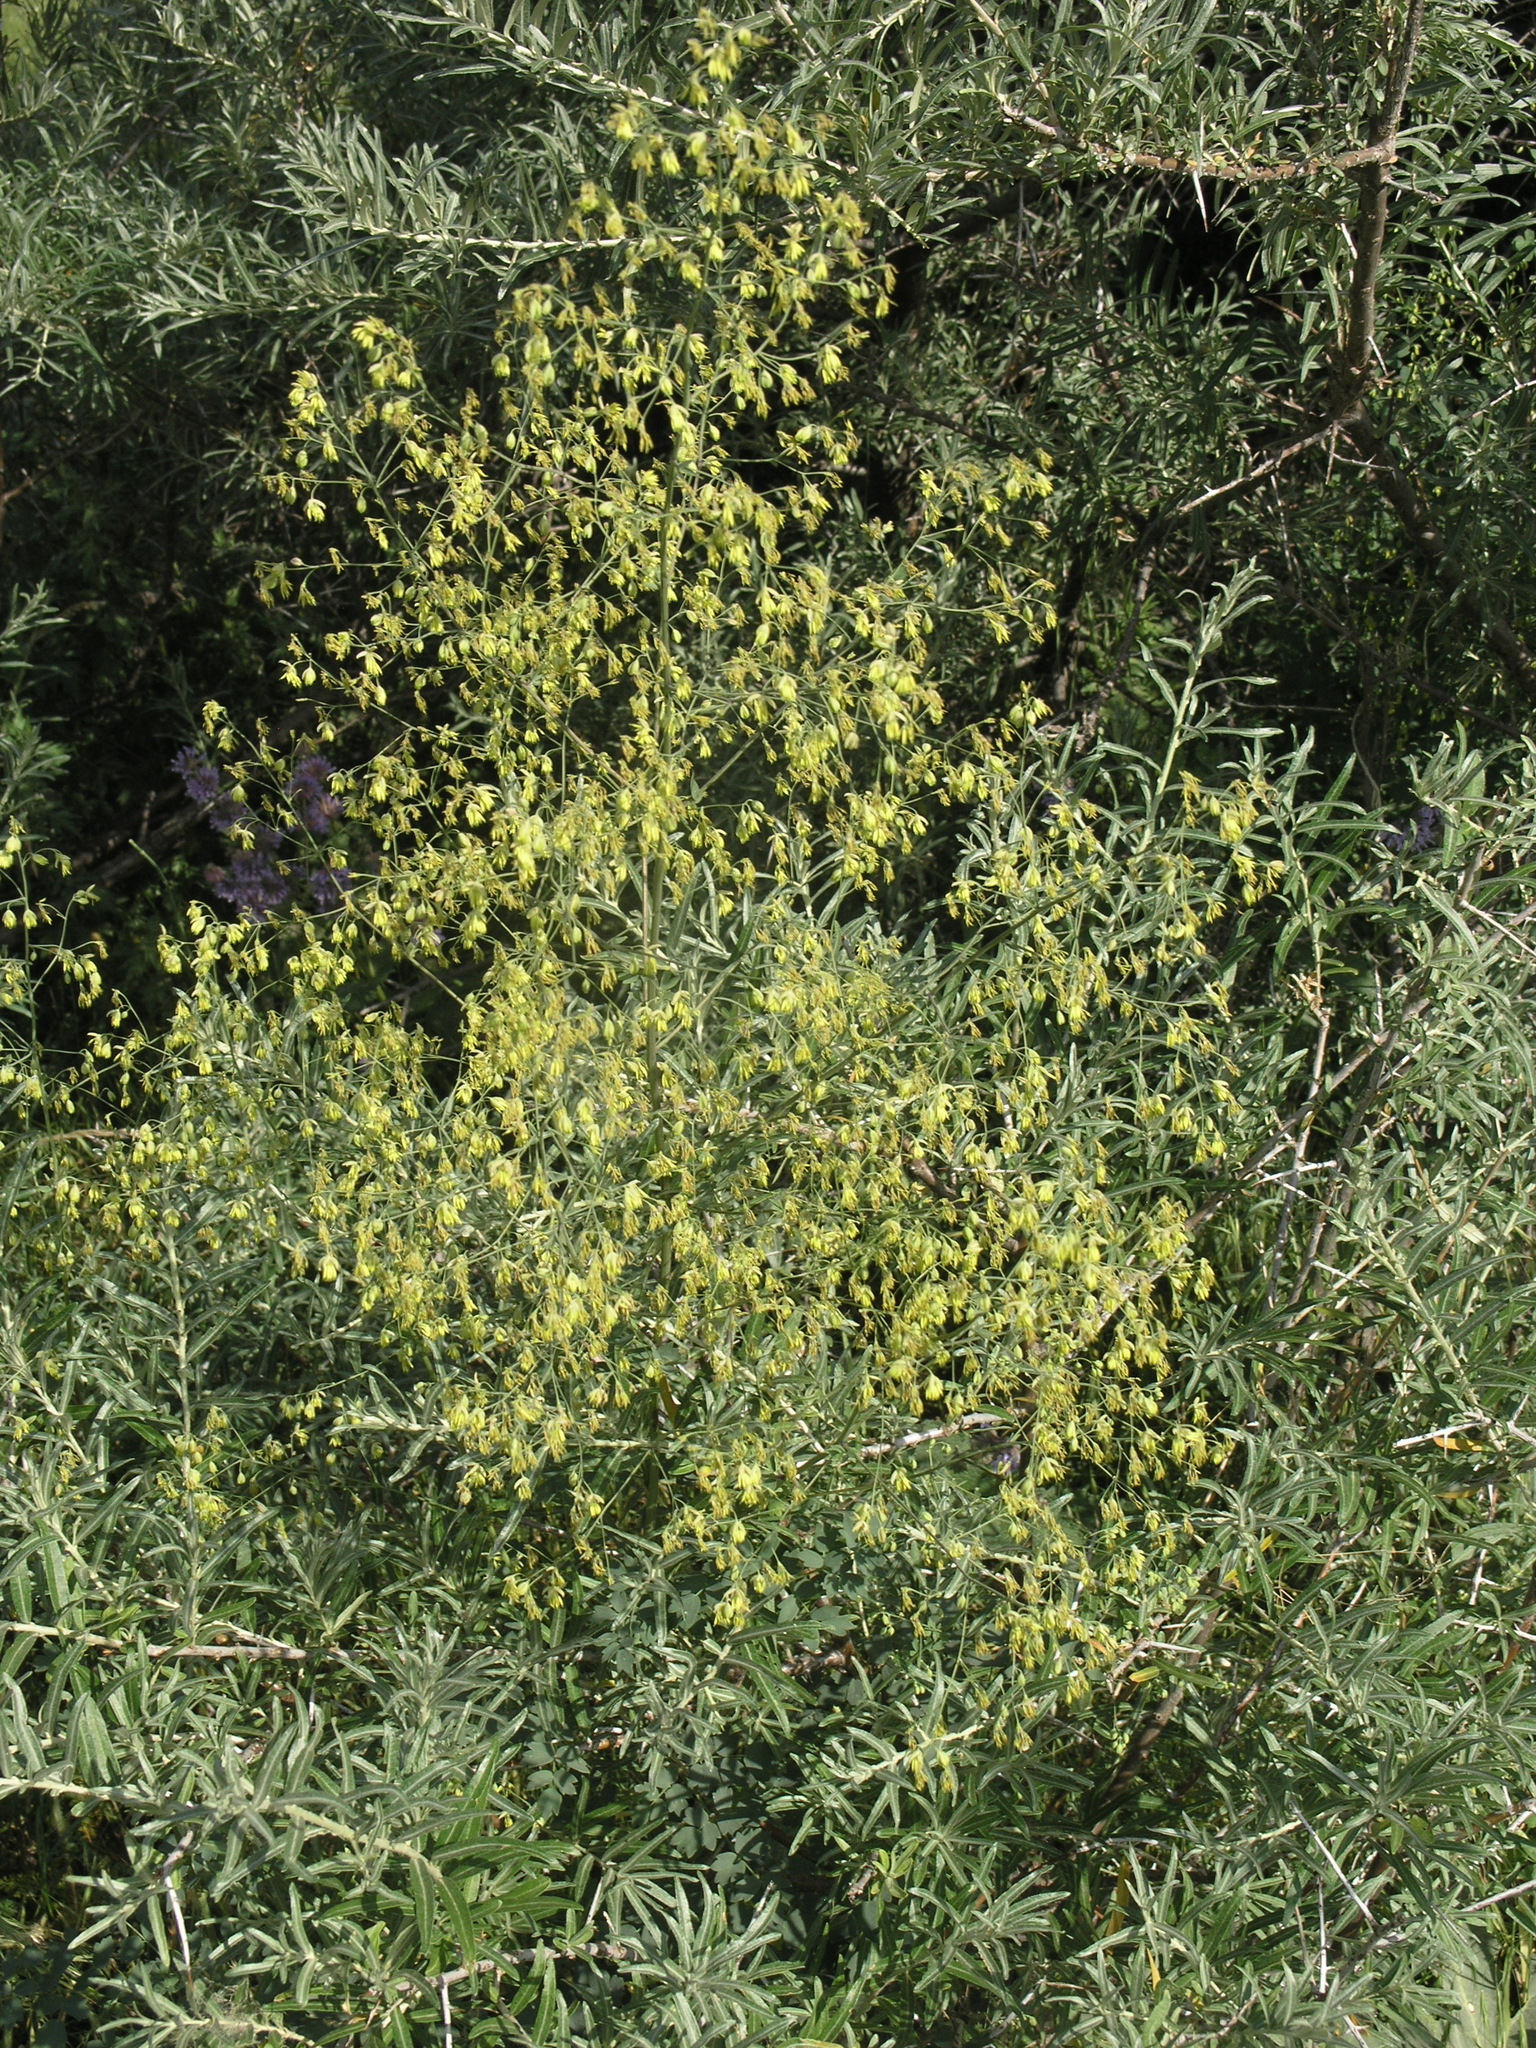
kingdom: Plantae
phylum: Tracheophyta
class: Magnoliopsida
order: Ranunculales
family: Ranunculaceae
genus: Thalictrum
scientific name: Thalictrum minus
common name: Lesser meadow-rue
